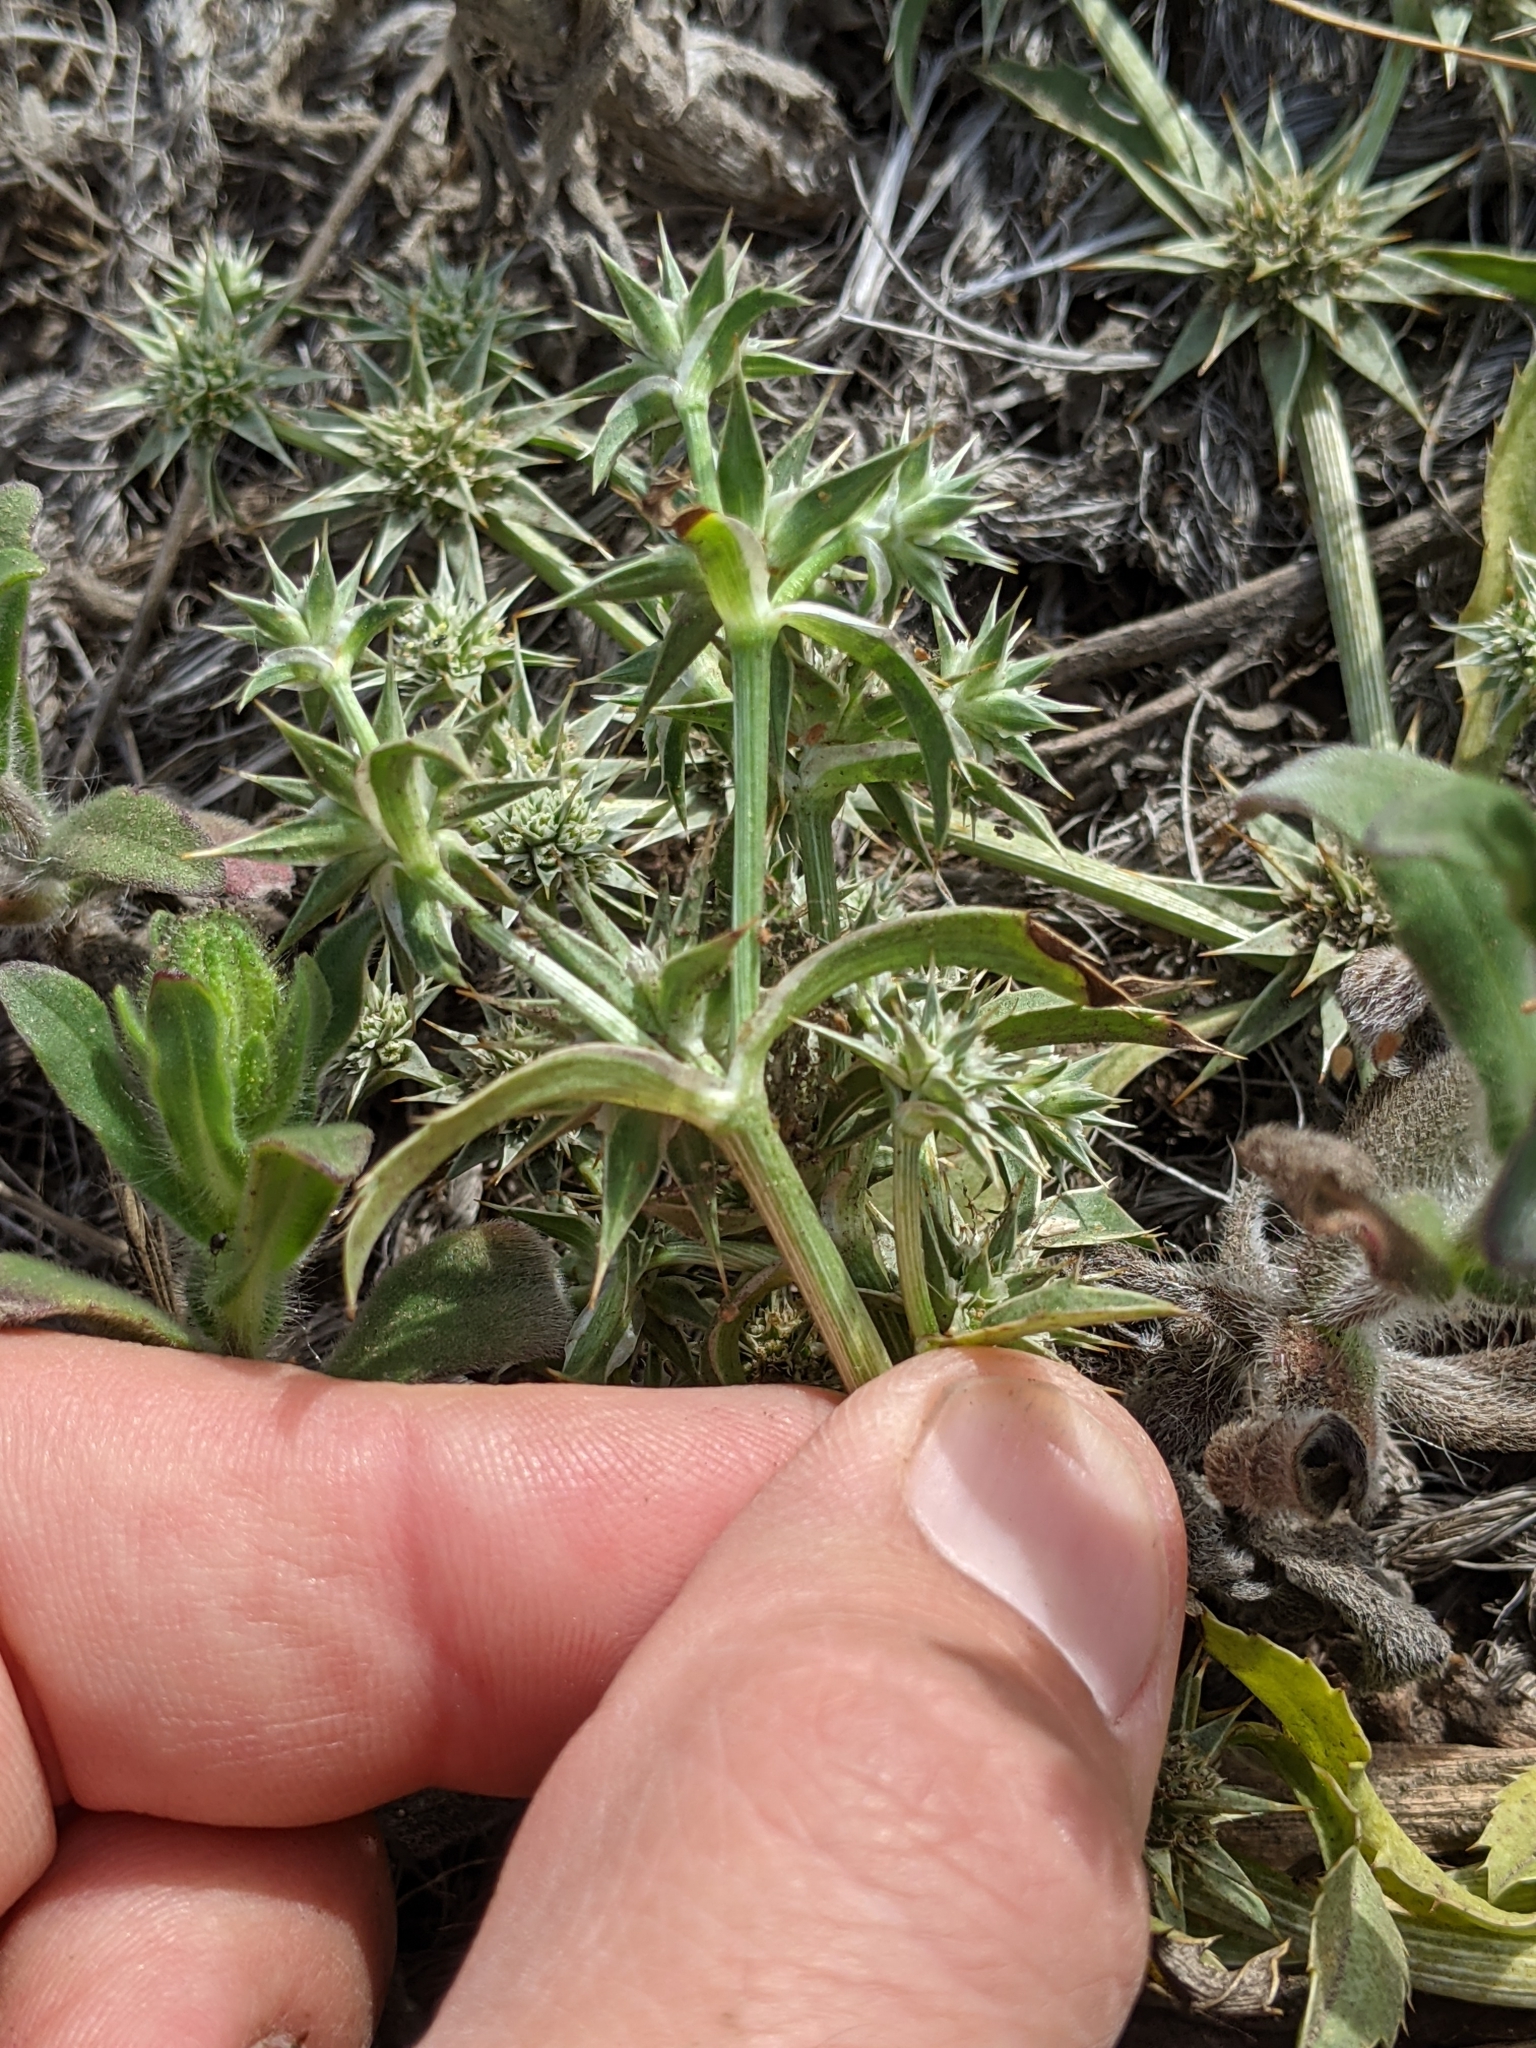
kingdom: Plantae
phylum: Tracheophyta
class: Magnoliopsida
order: Apiales
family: Apiaceae
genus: Eryngium
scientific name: Eryngium armatum
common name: Coyote thistle
